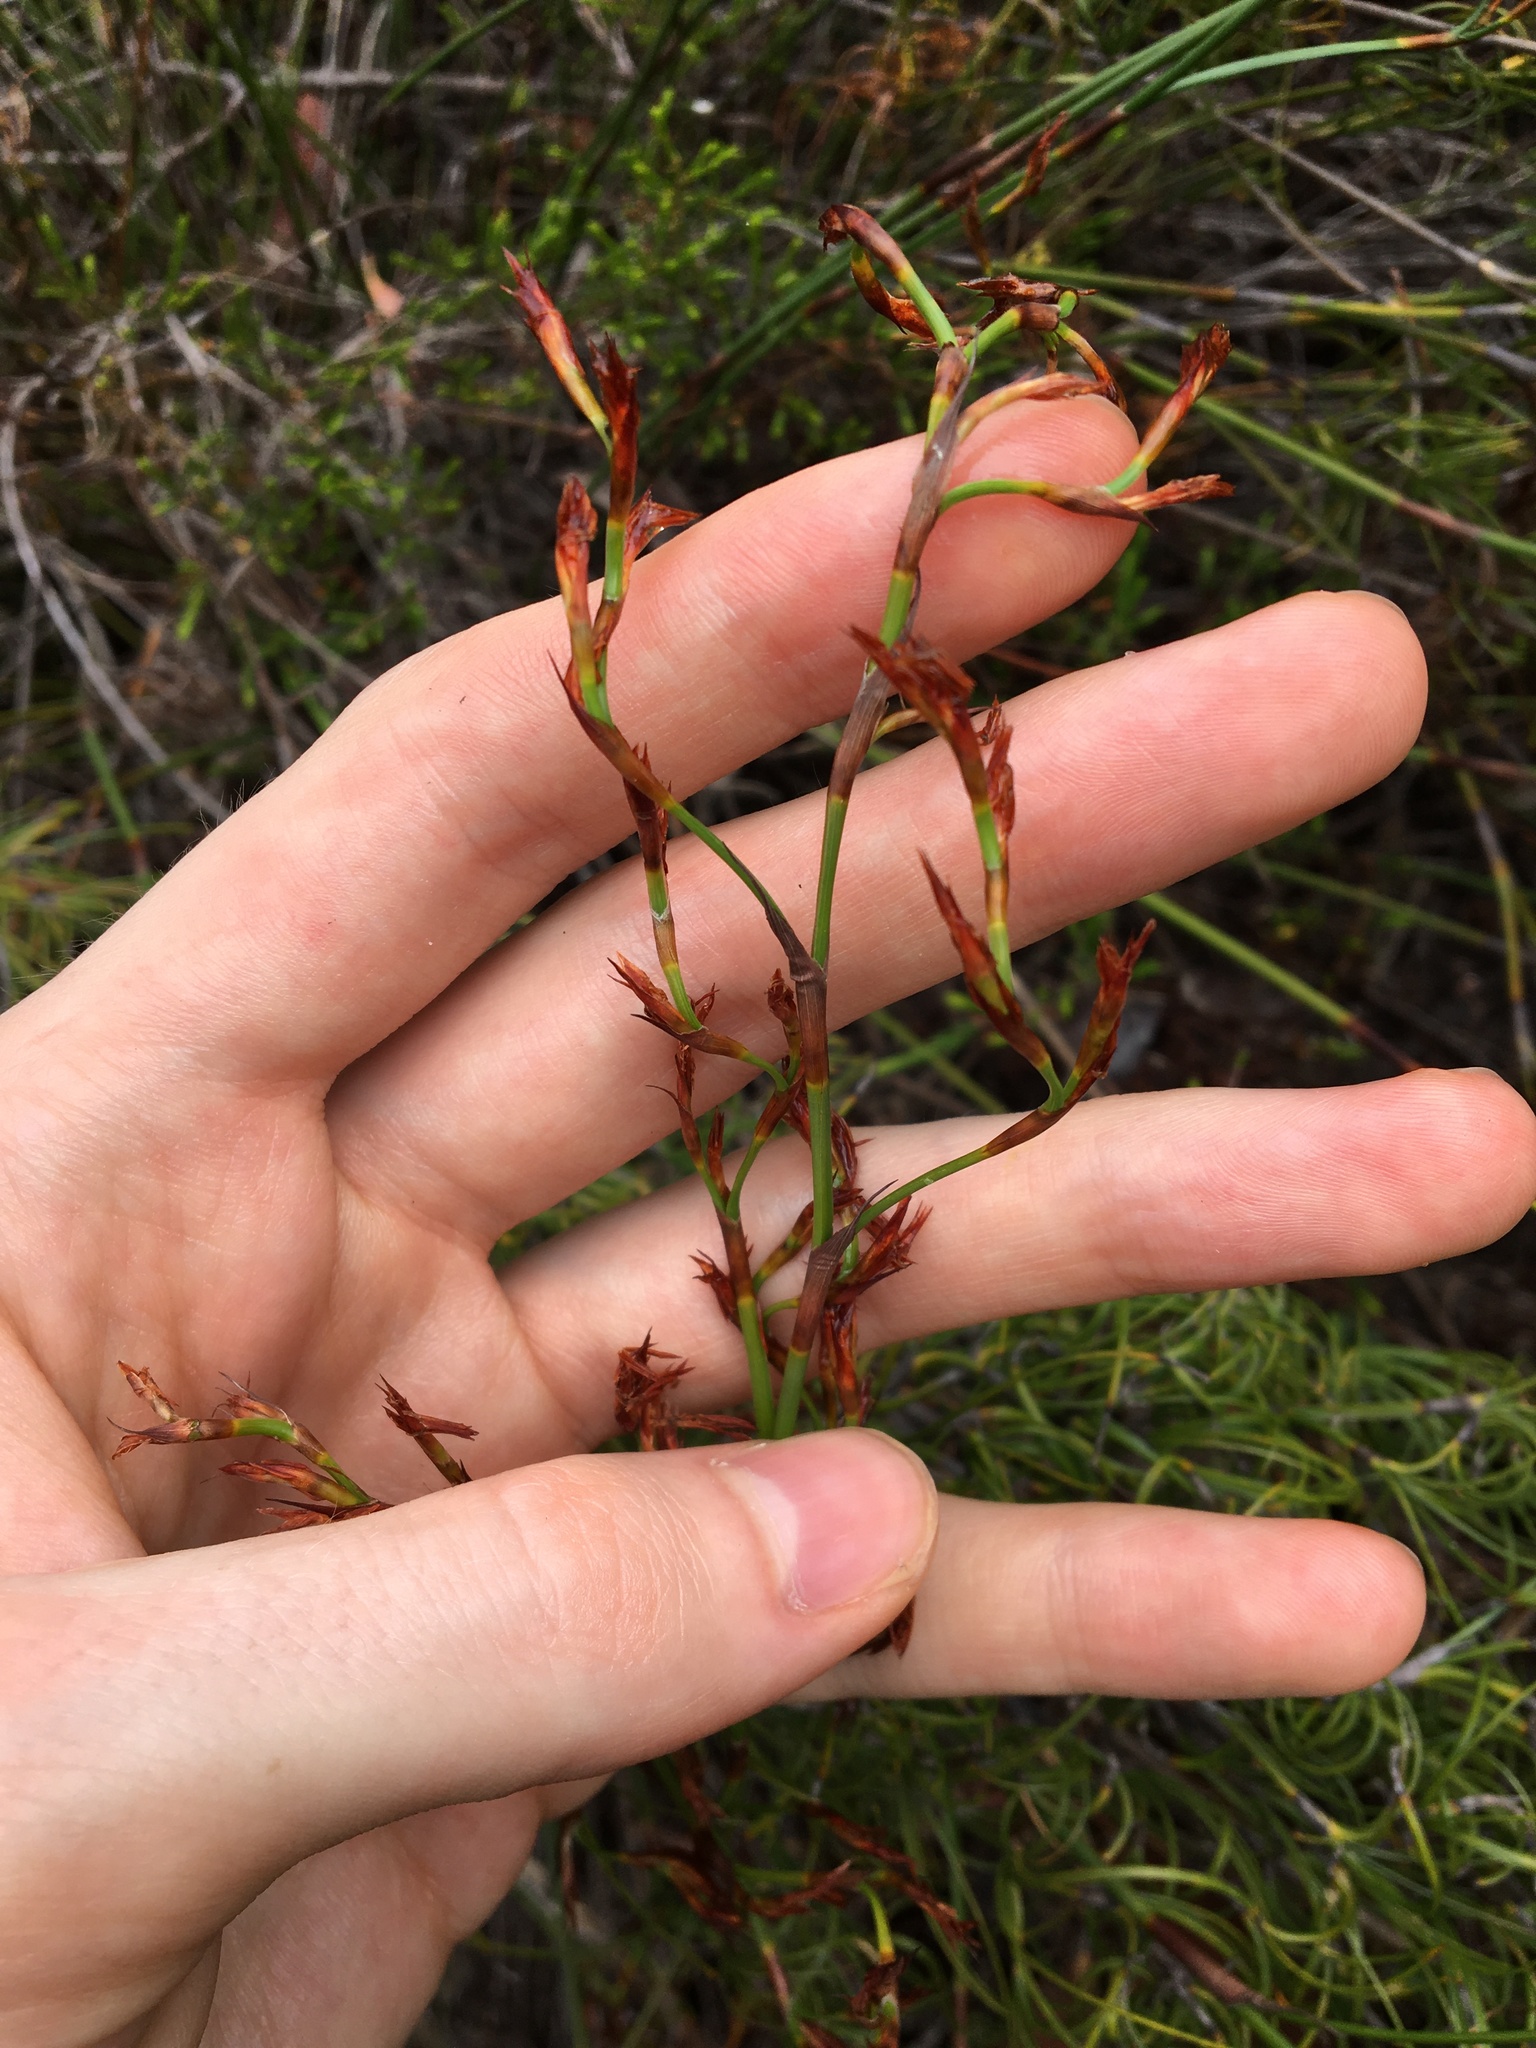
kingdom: Plantae
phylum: Tracheophyta
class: Liliopsida
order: Poales
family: Cyperaceae
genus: Caustis
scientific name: Caustis recurvata
